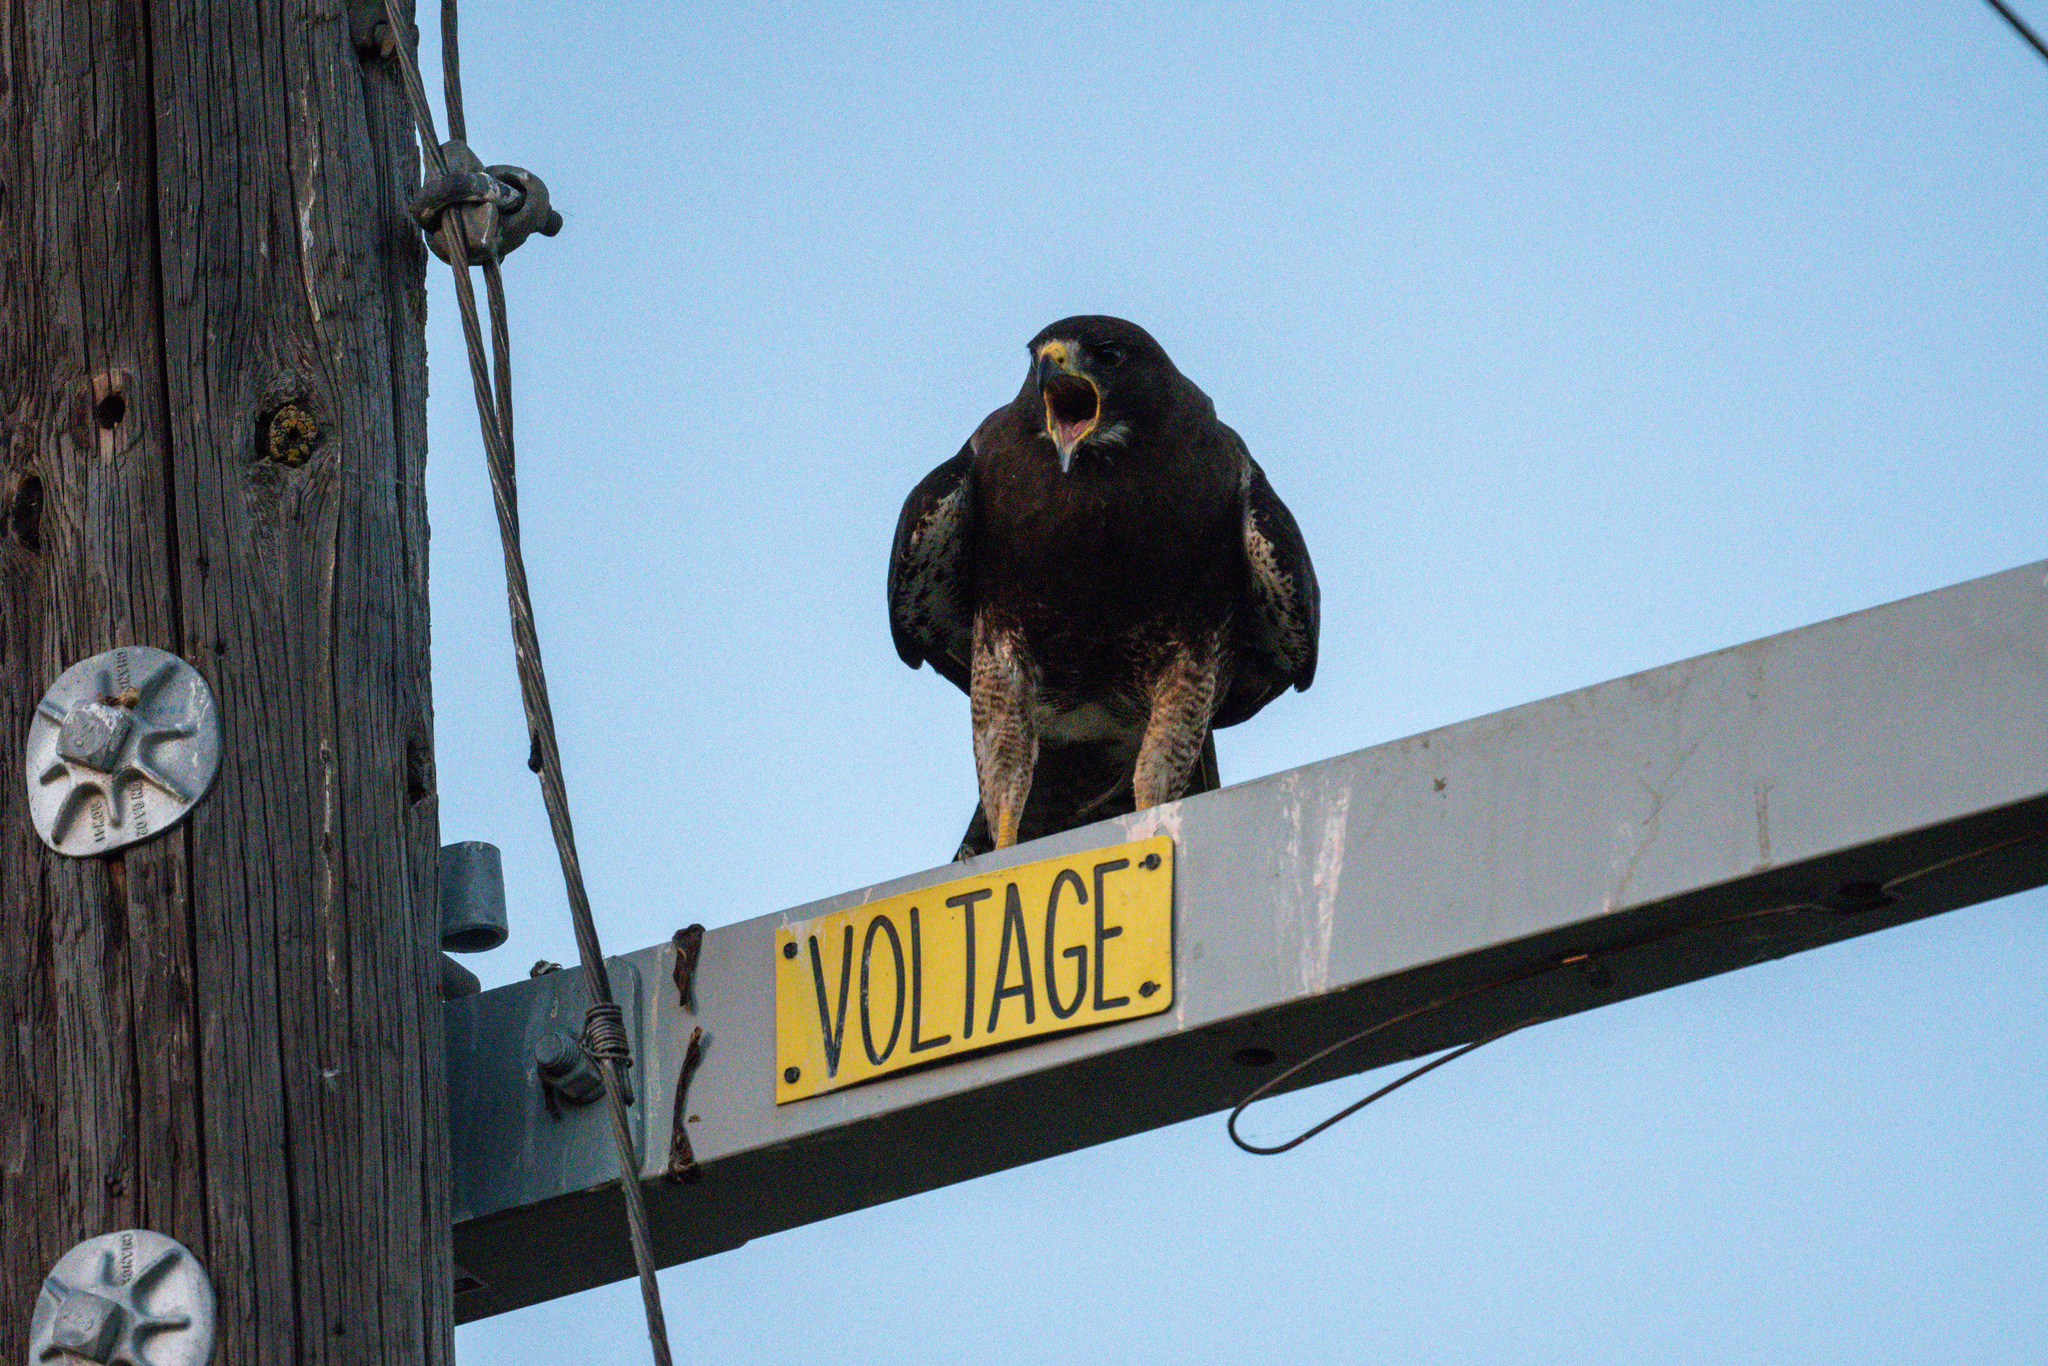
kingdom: Animalia
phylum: Chordata
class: Aves
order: Accipitriformes
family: Accipitridae
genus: Buteo
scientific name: Buteo swainsoni
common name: Swainson's hawk
